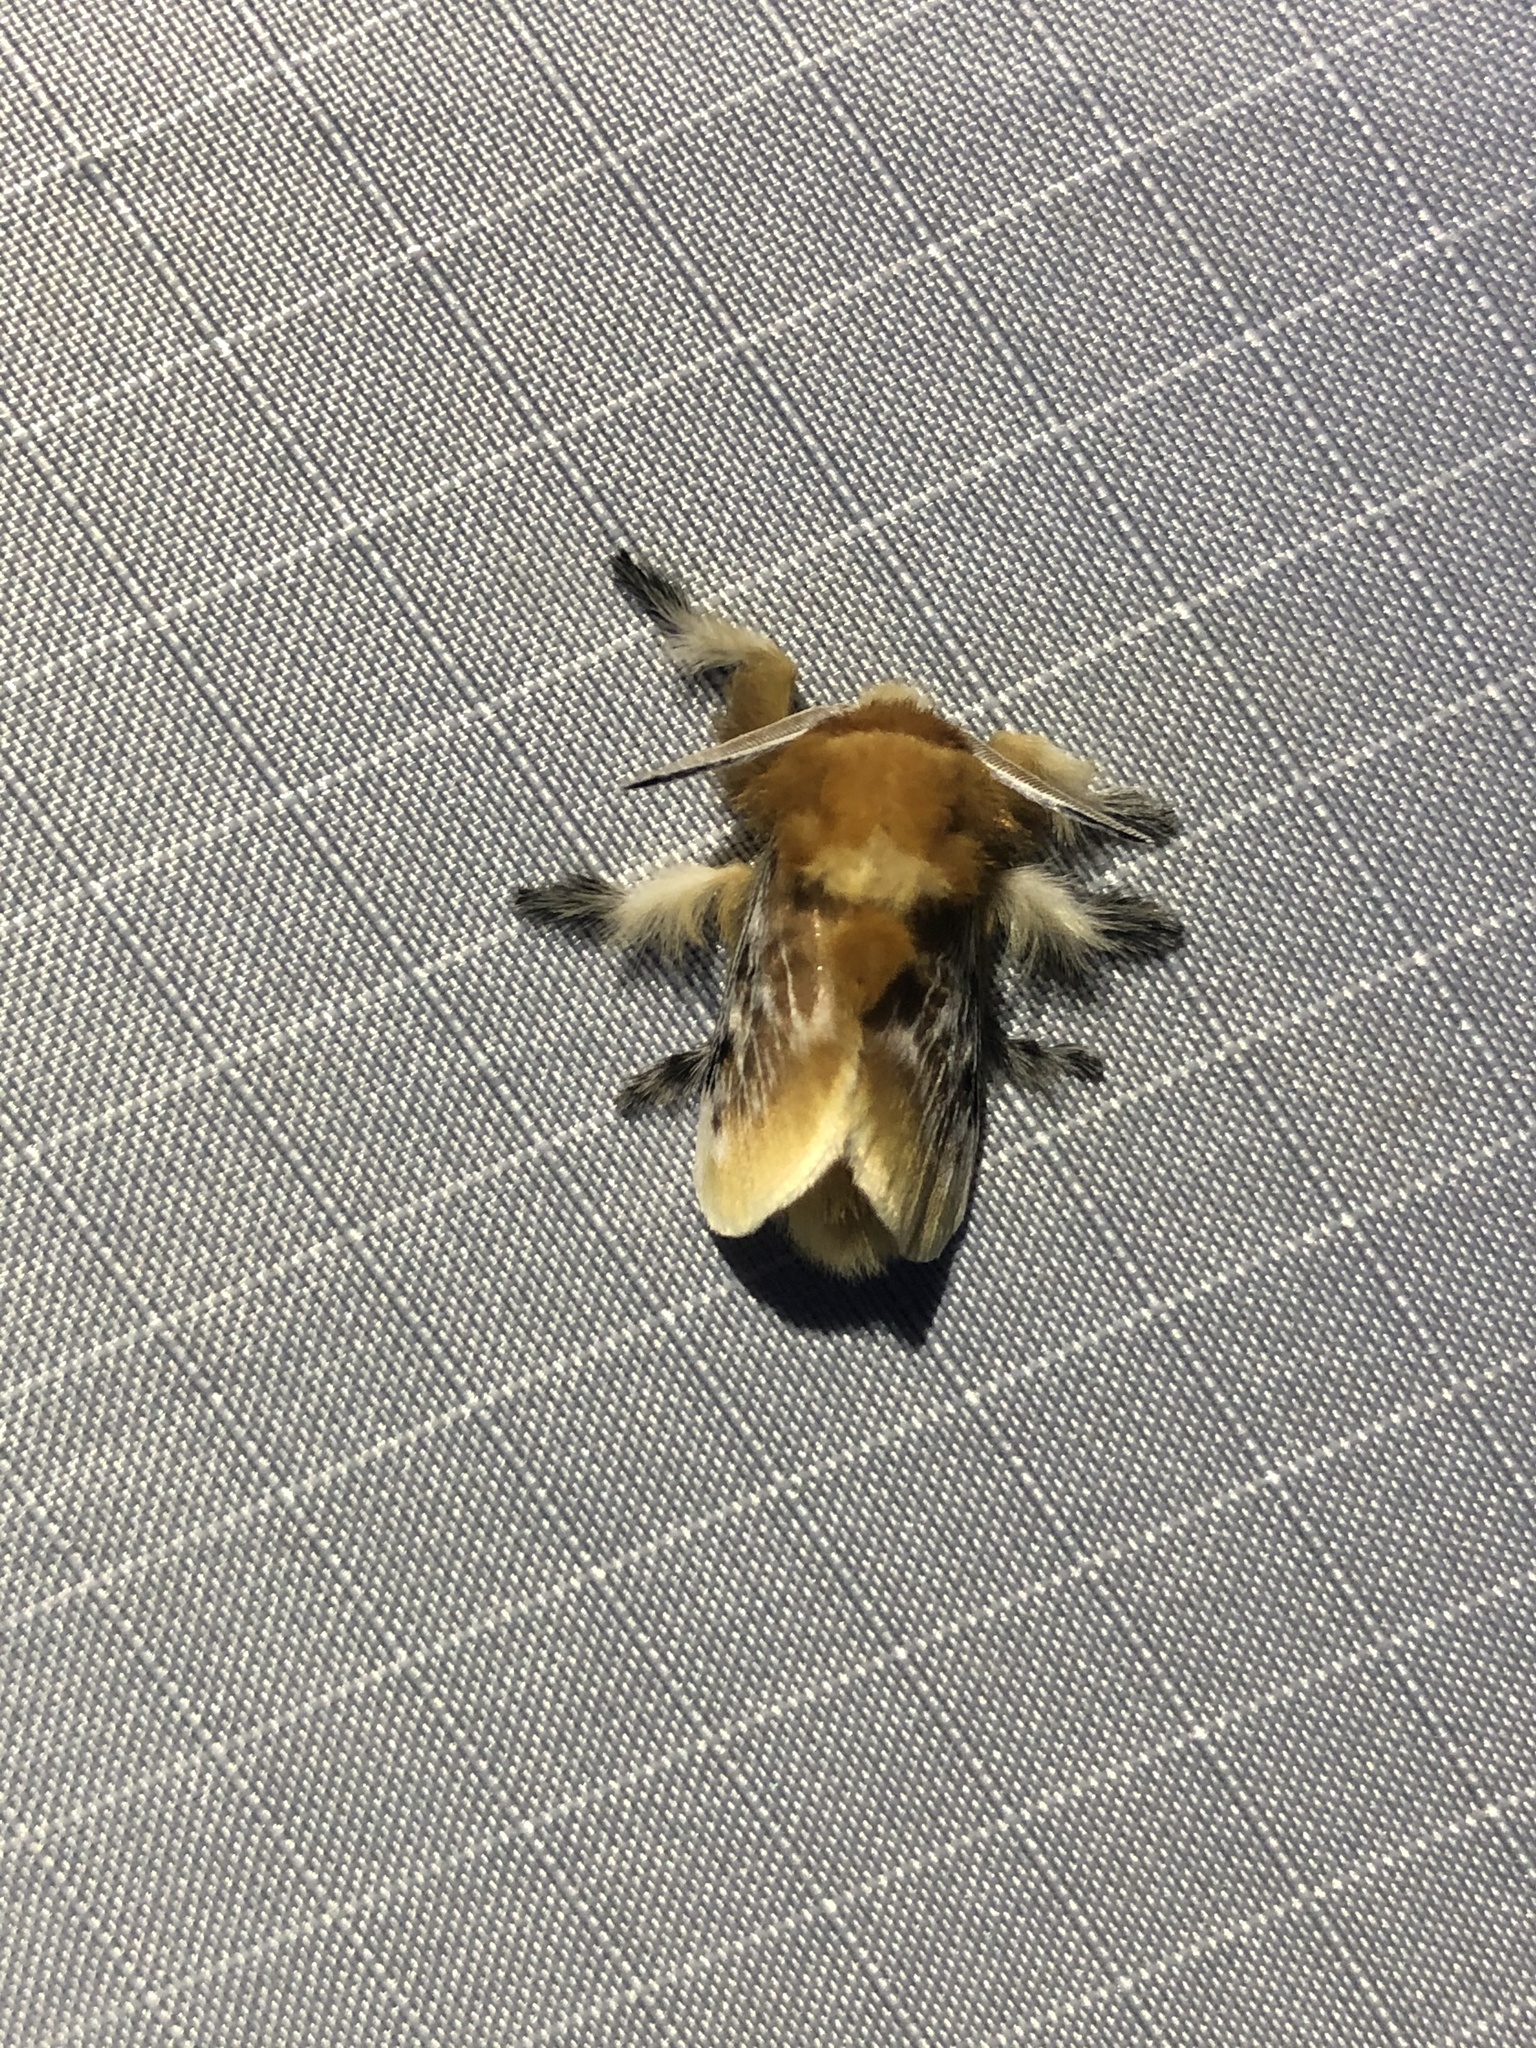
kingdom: Animalia
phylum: Arthropoda
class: Insecta
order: Lepidoptera
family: Megalopygidae
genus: Megalopyge
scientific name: Megalopyge opercularis
